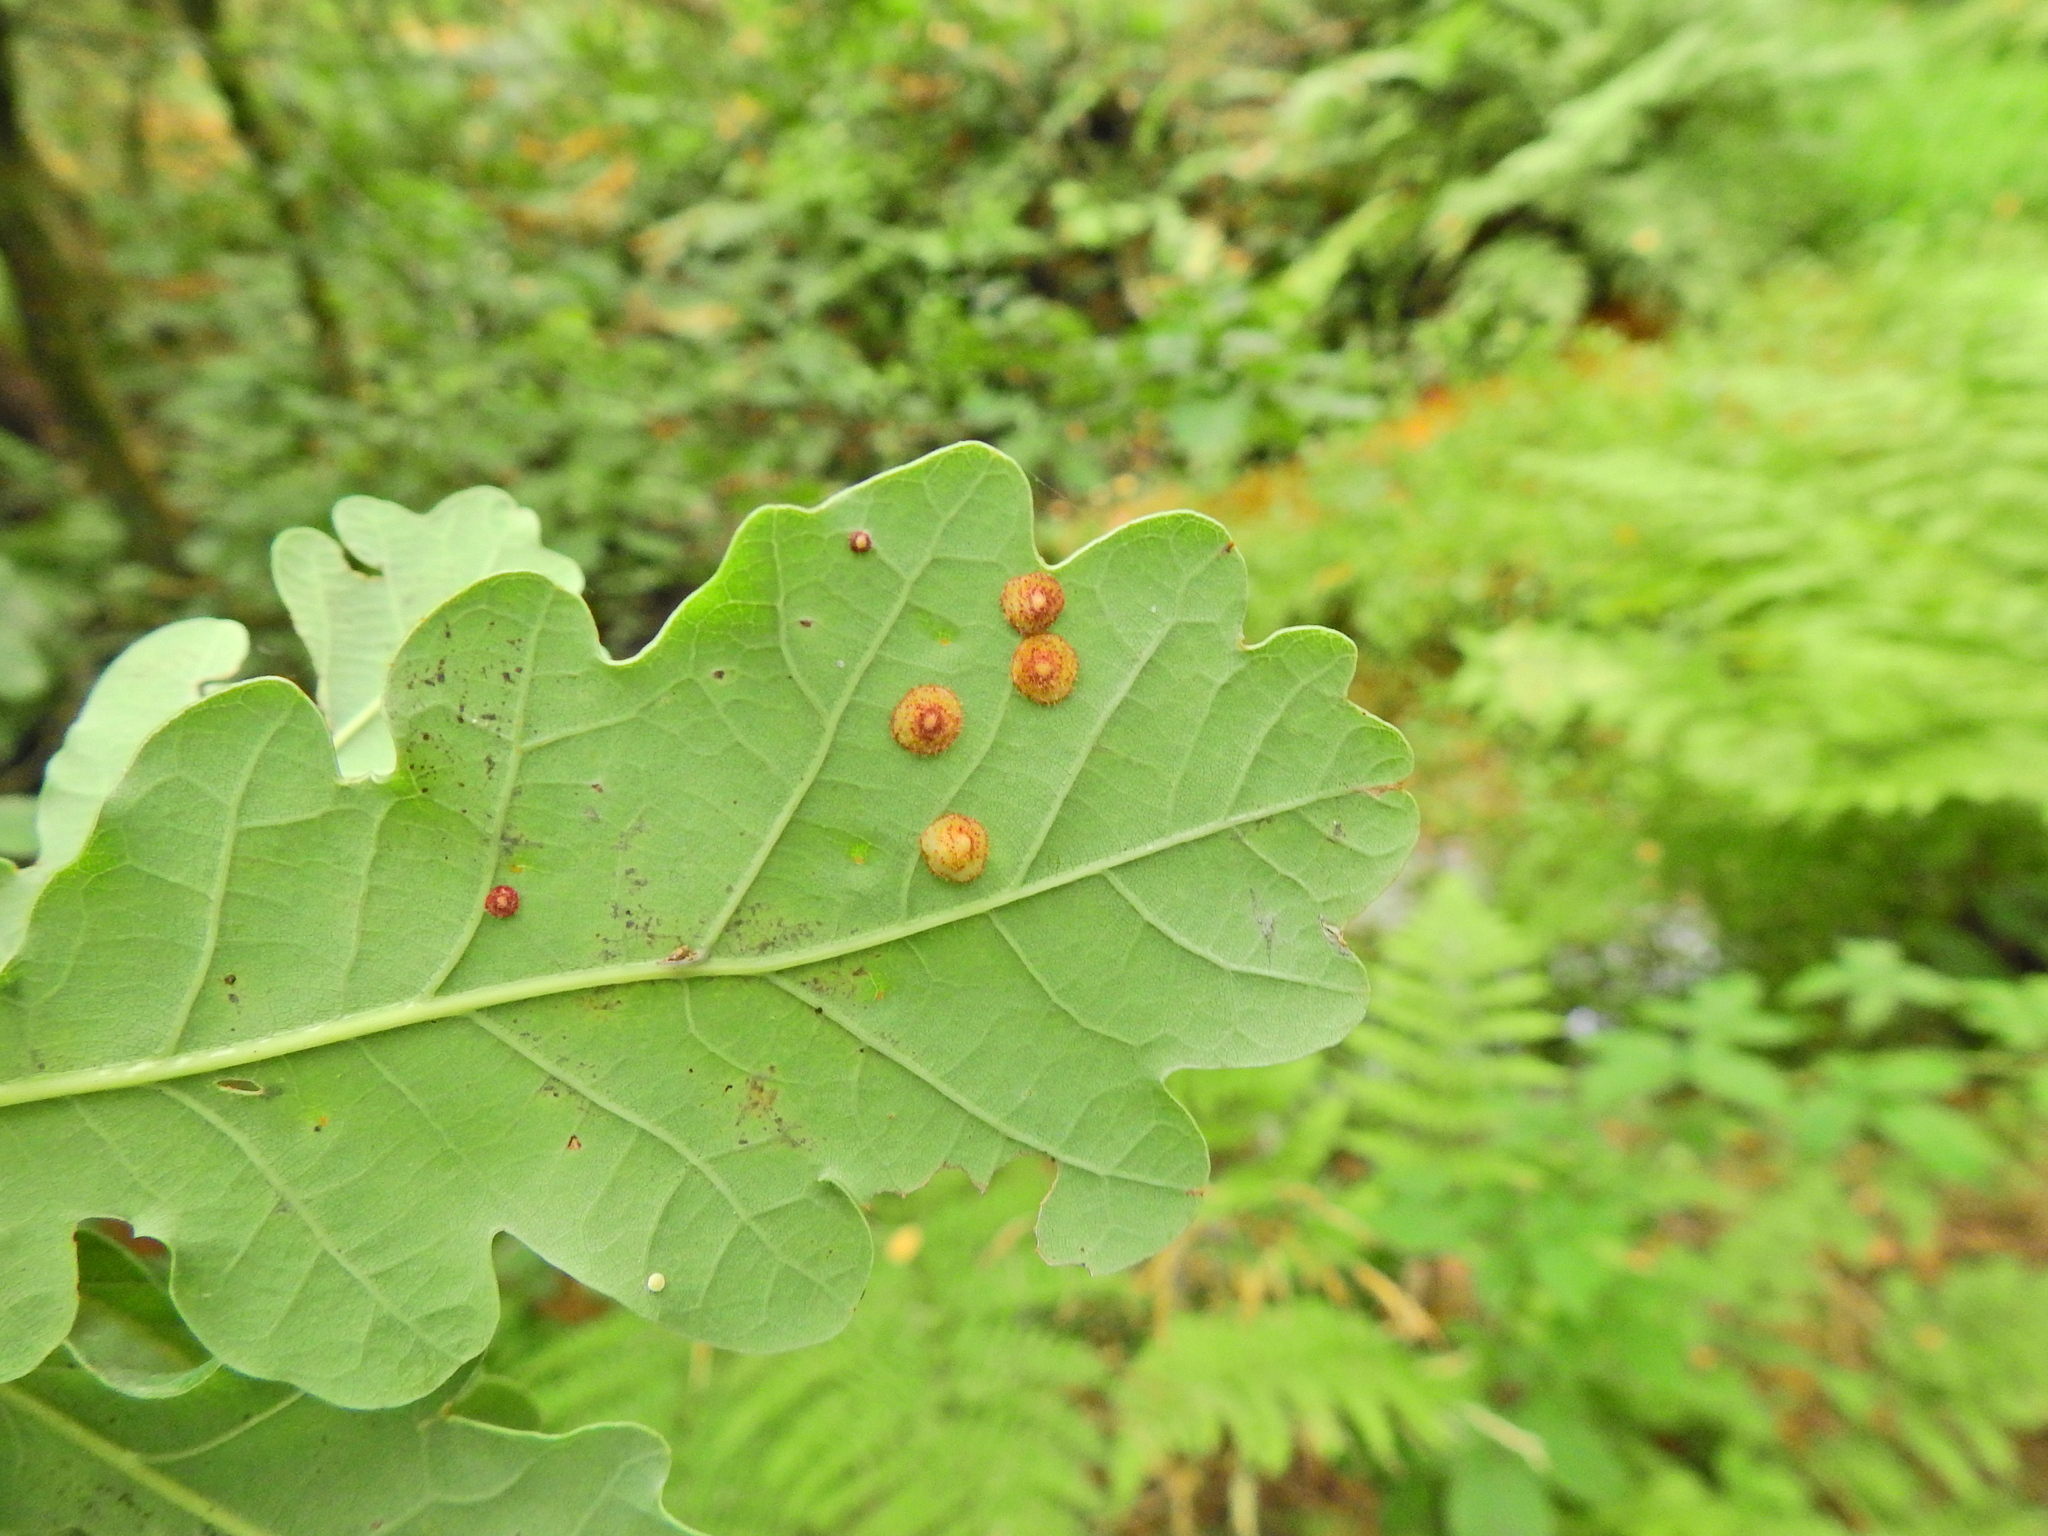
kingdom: Animalia
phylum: Arthropoda
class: Insecta
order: Hymenoptera
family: Cynipidae
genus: Neuroterus
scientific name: Neuroterus quercusbaccarum
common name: Common spangle gall
